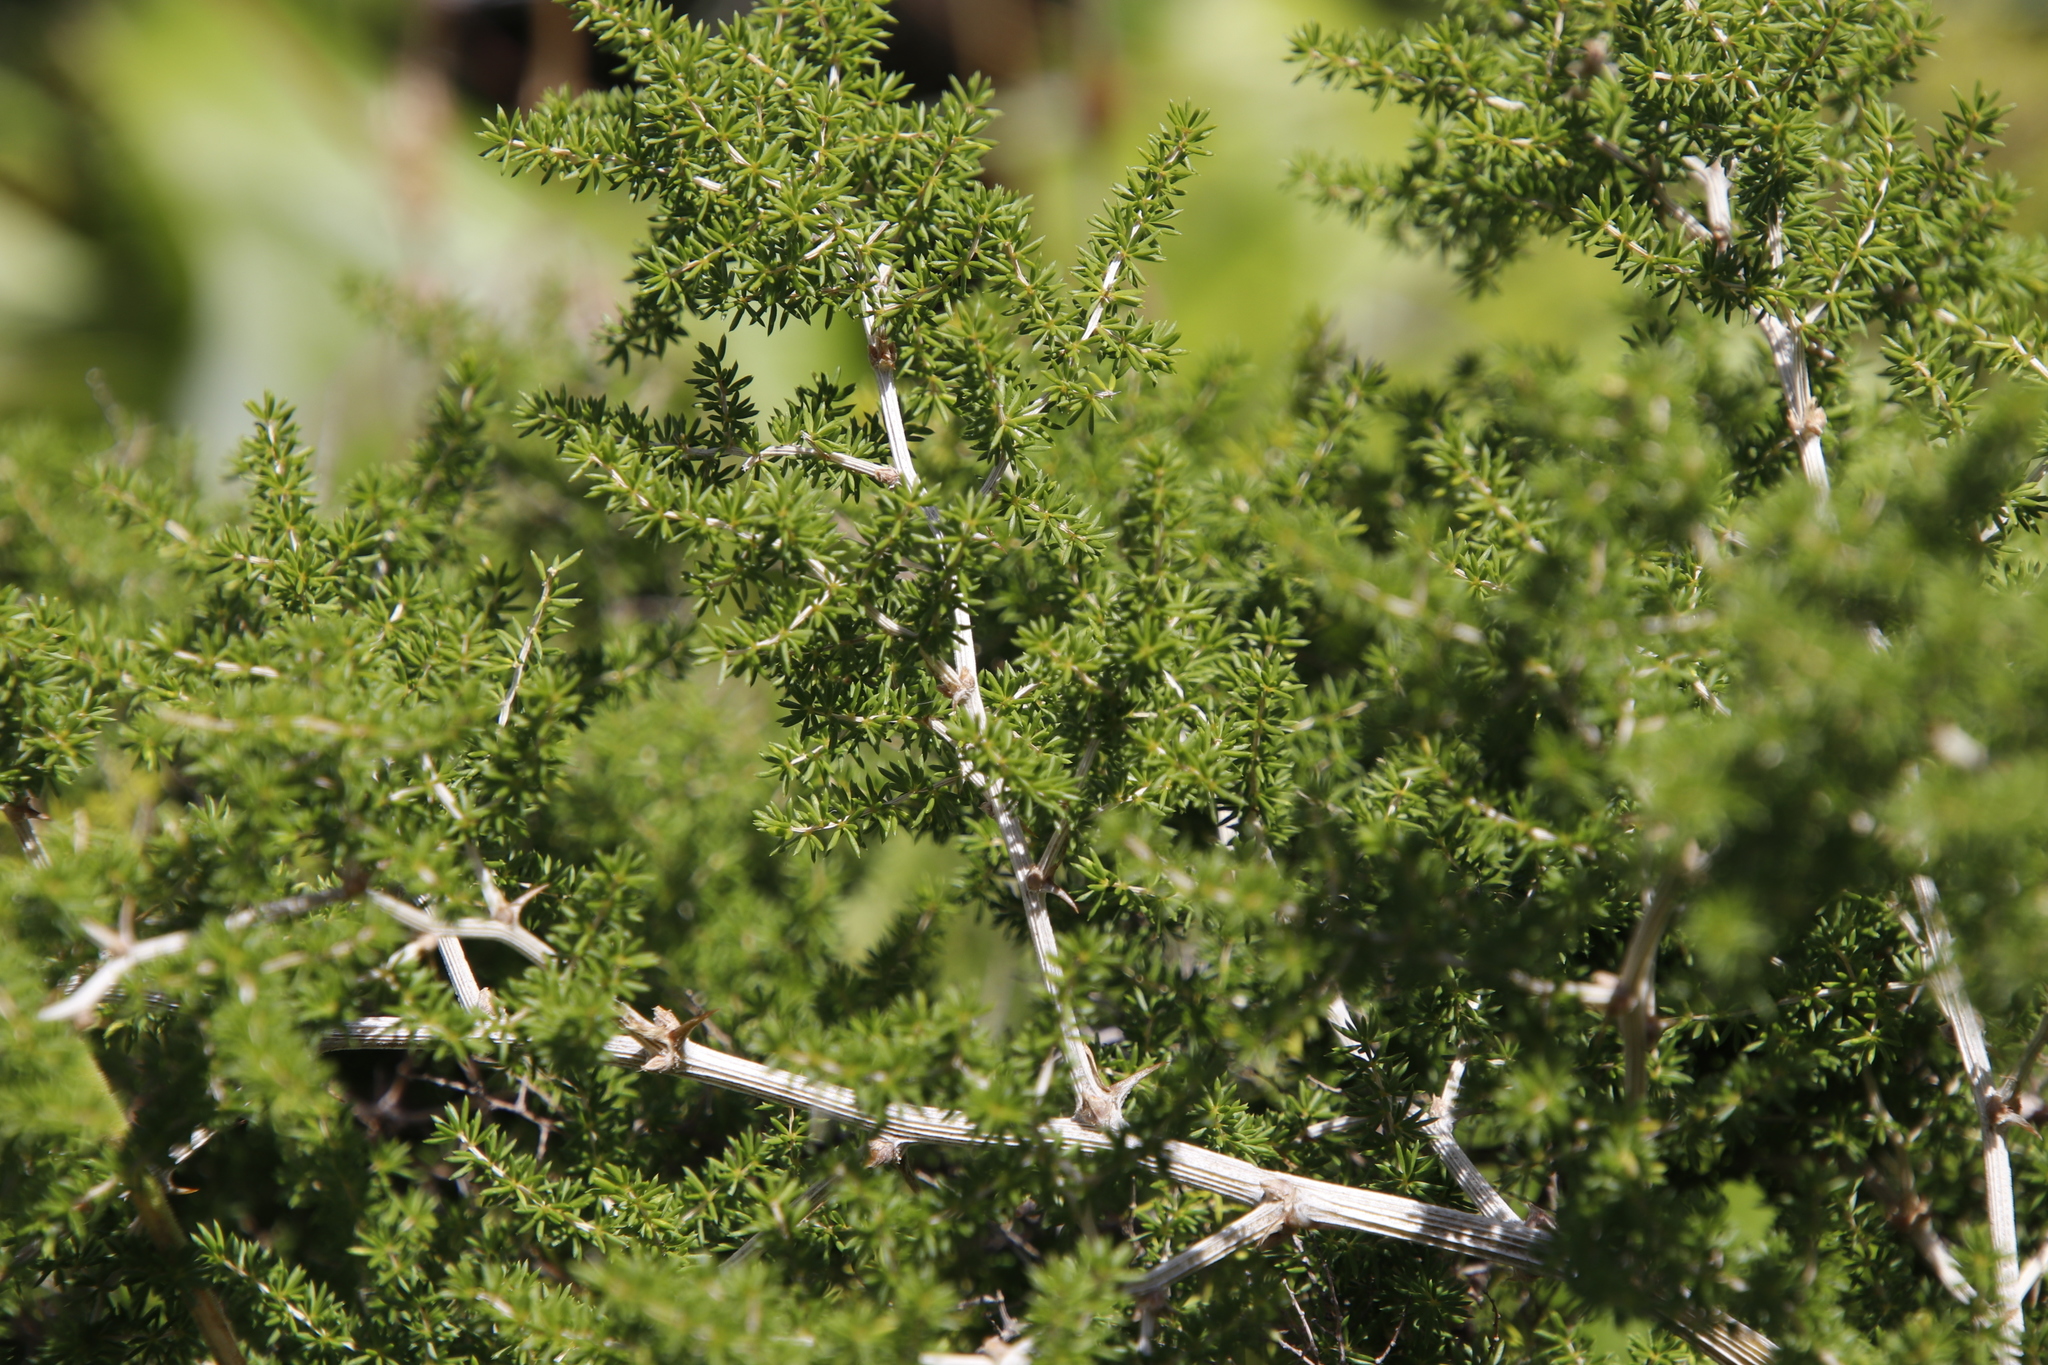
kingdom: Plantae
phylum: Tracheophyta
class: Liliopsida
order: Asparagales
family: Asparagaceae
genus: Asparagus
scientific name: Asparagus microraphis
